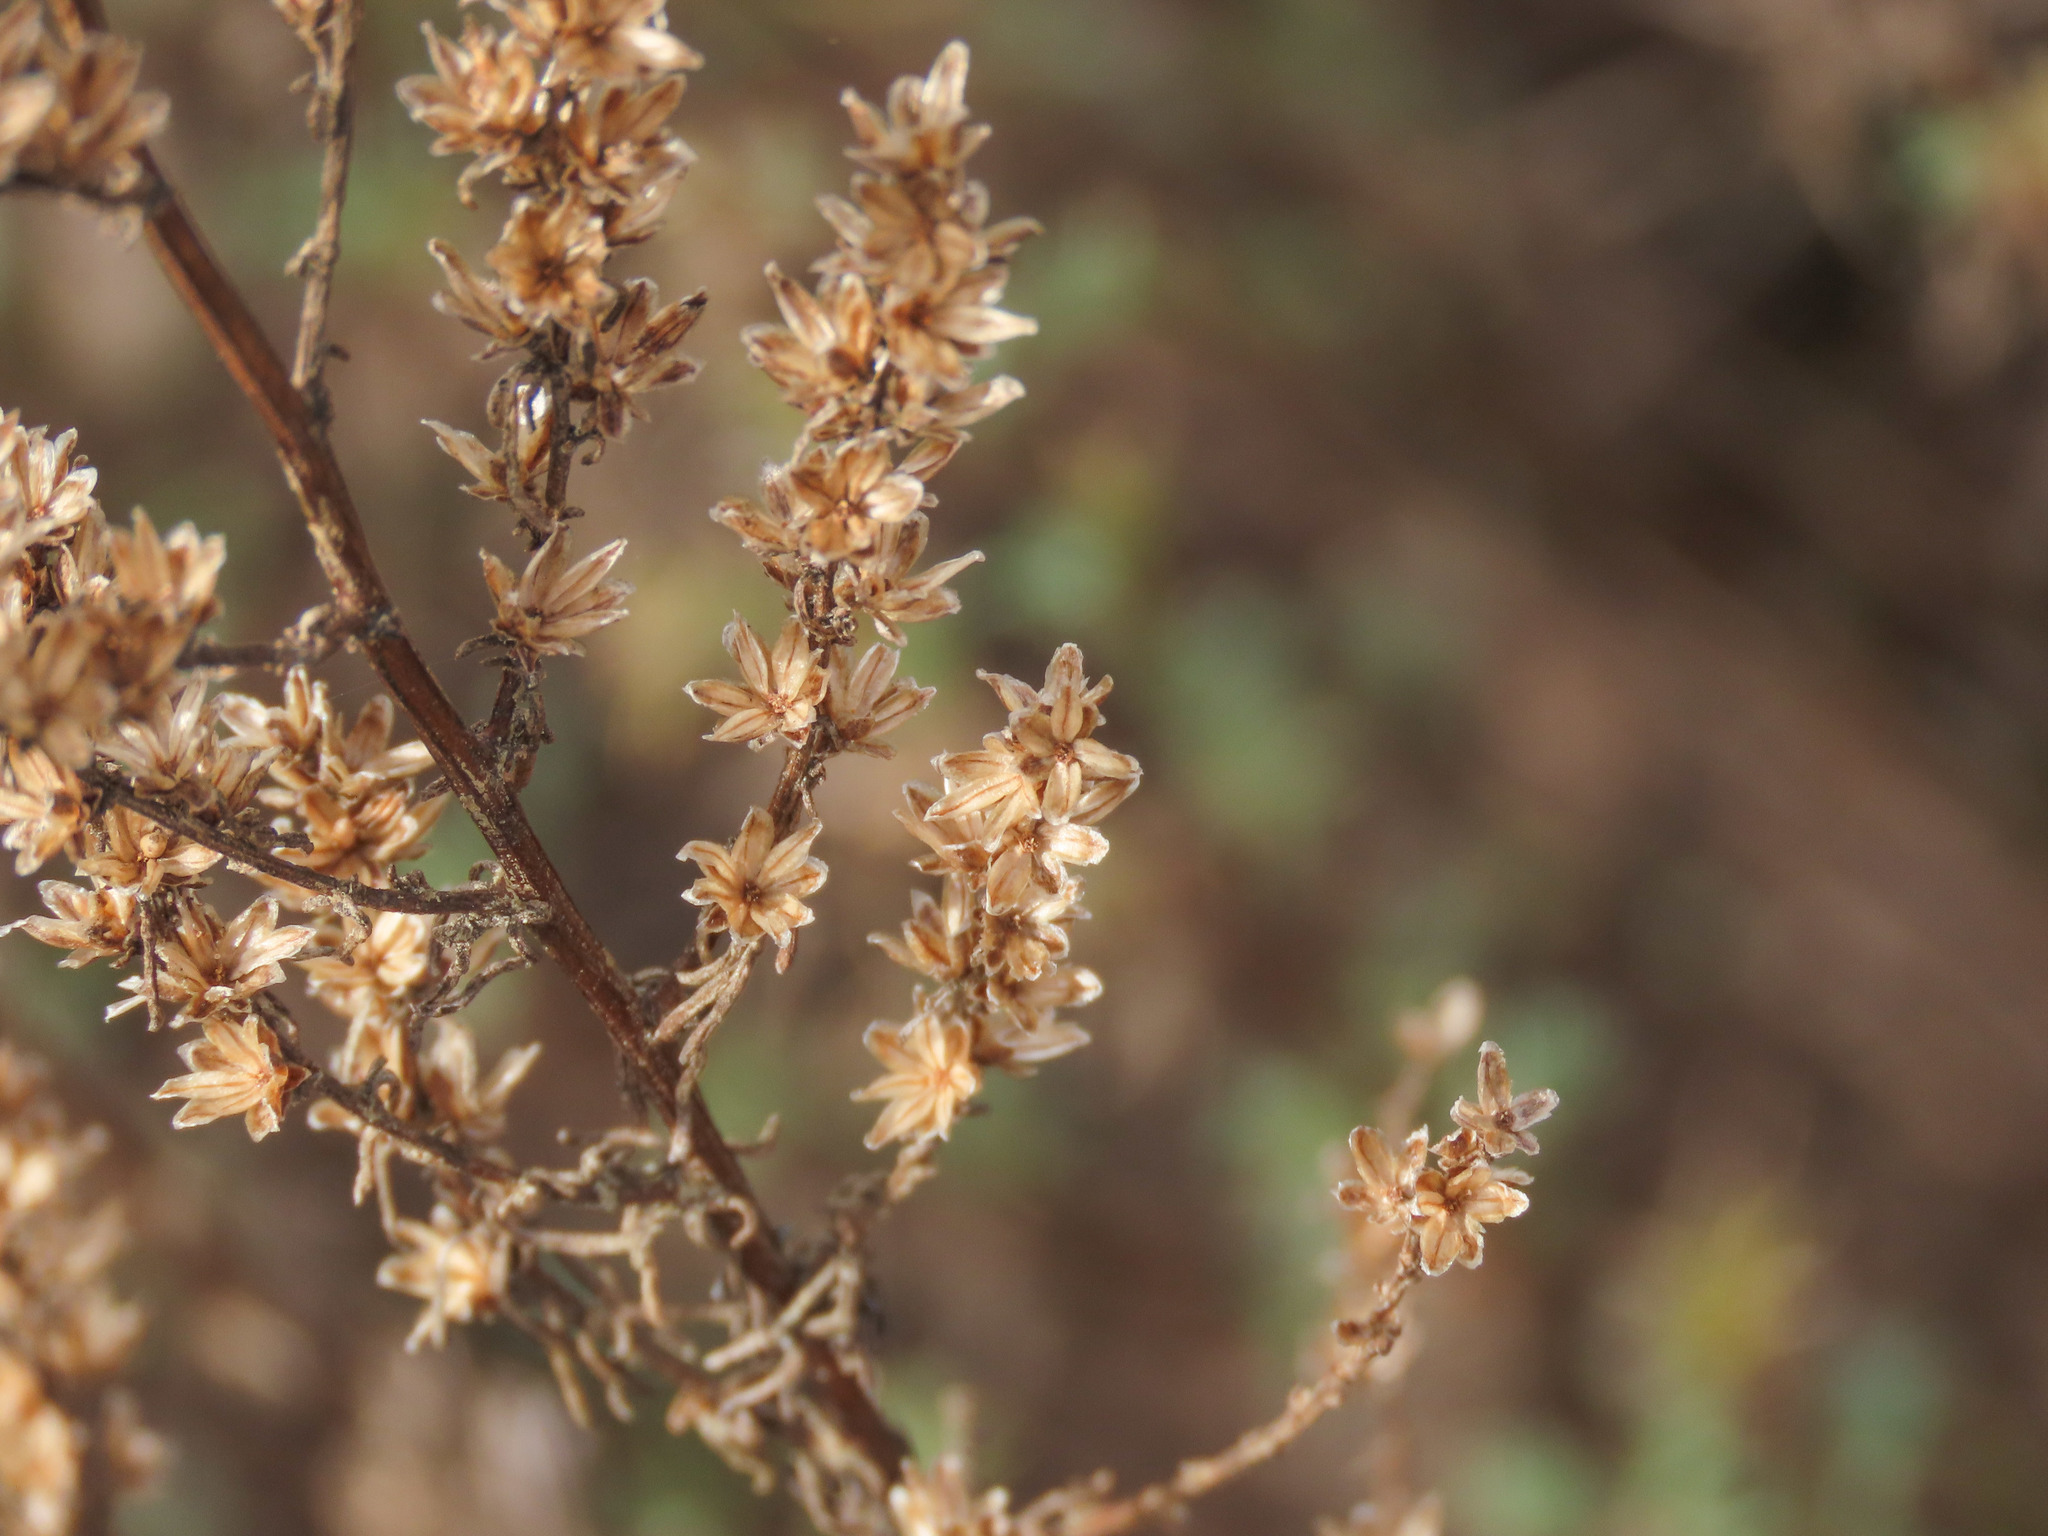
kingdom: Plantae
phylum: Tracheophyta
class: Magnoliopsida
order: Asterales
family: Asteraceae
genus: Artemisia
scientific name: Artemisia campestris
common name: Field wormwood
